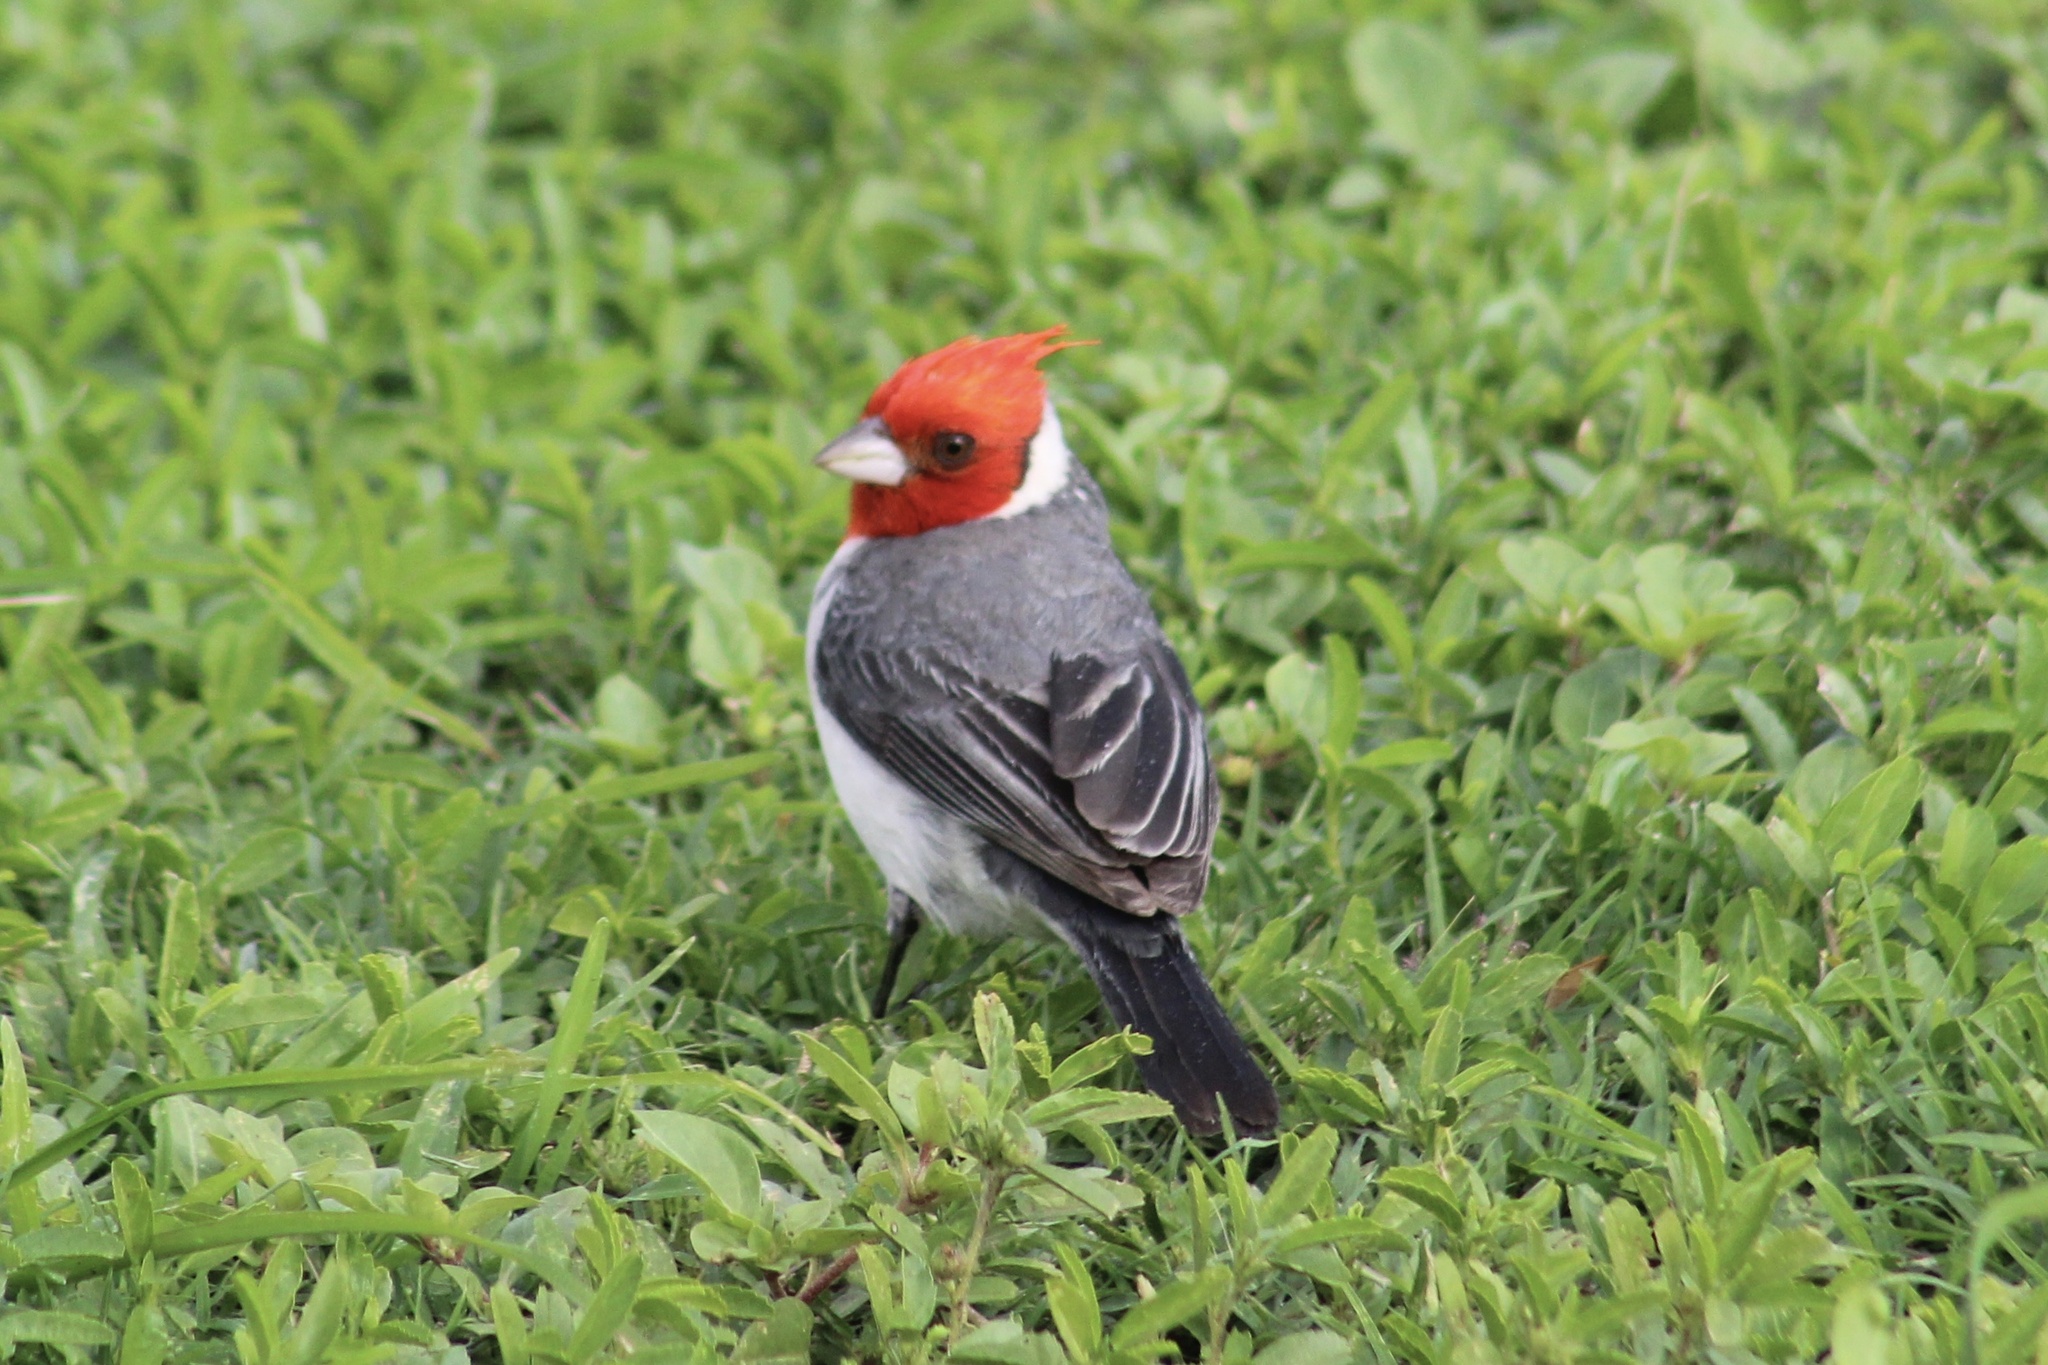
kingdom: Animalia
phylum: Chordata
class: Aves
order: Passeriformes
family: Thraupidae
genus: Paroaria
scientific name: Paroaria coronata
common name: Red-crested cardinal
